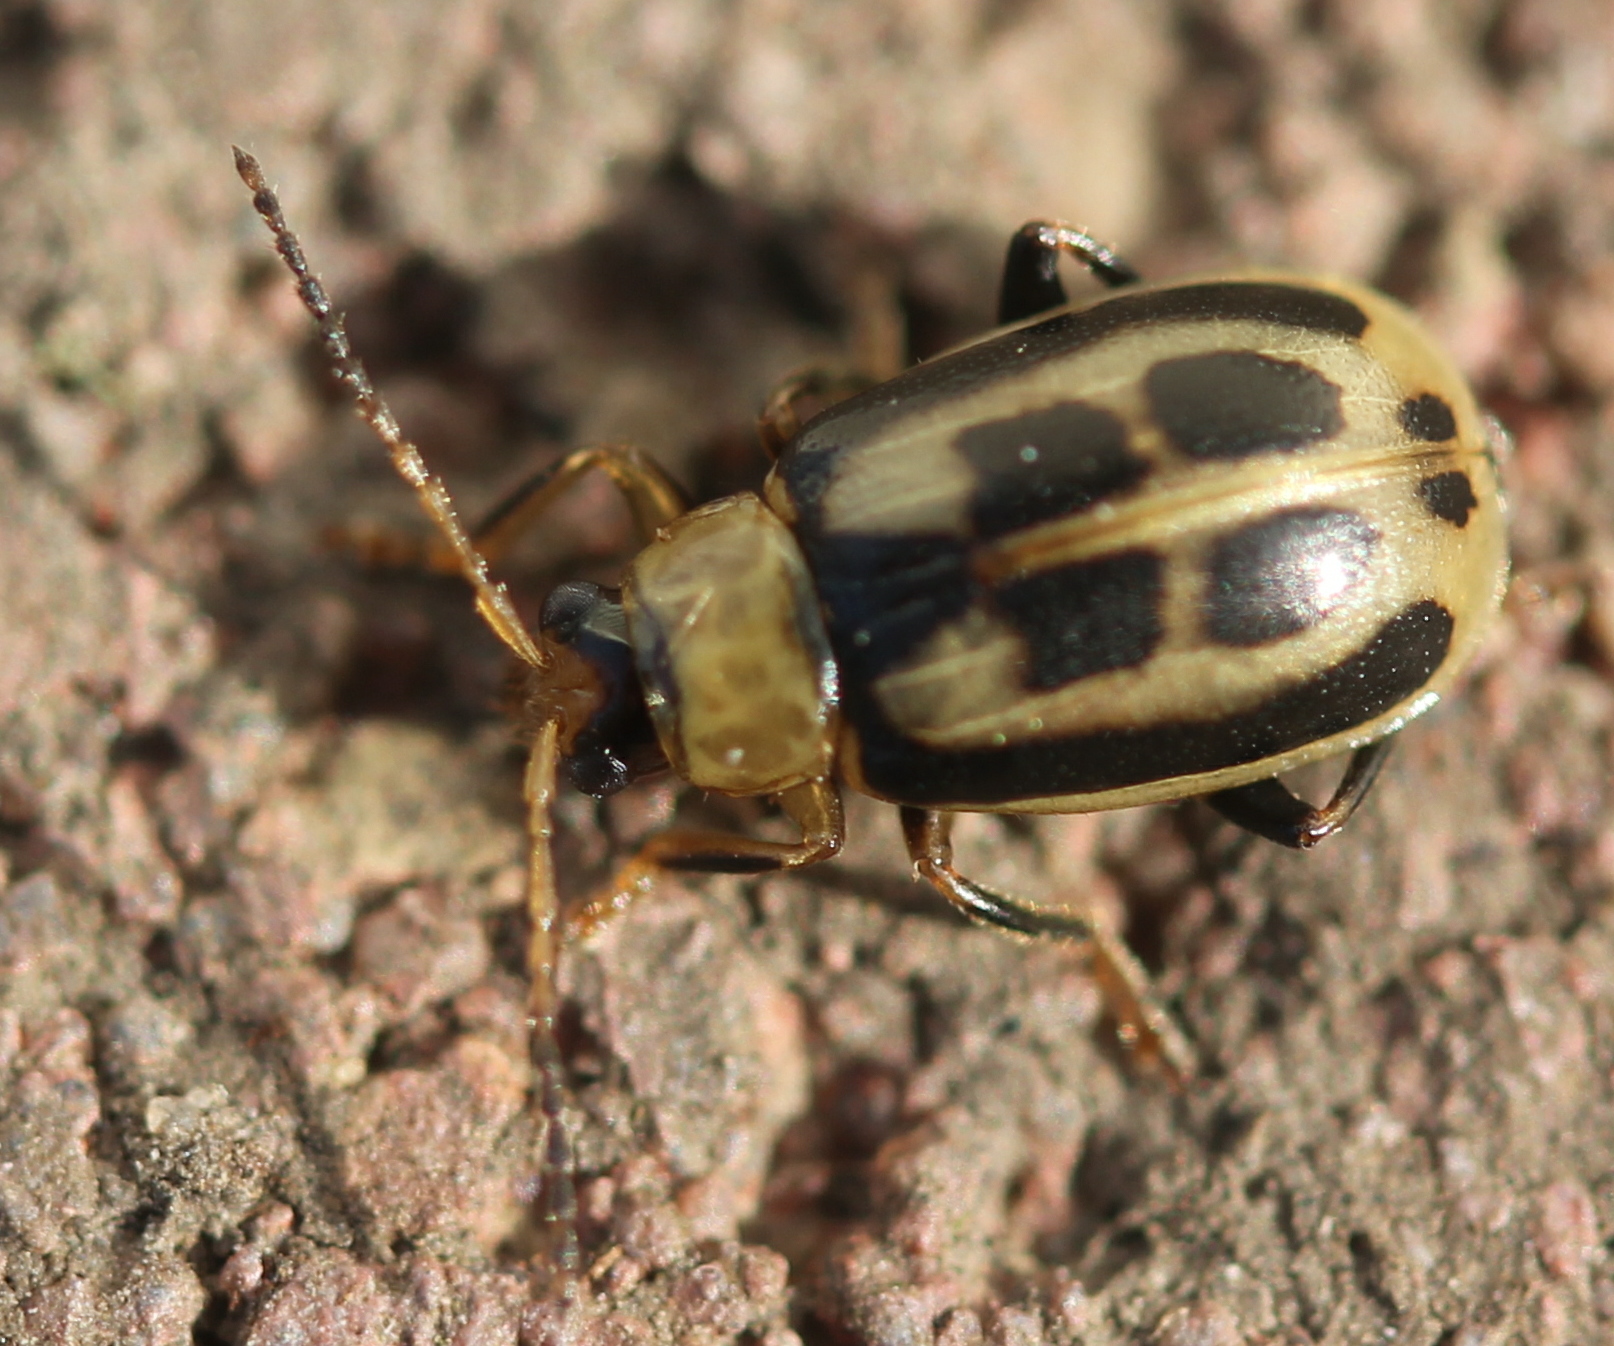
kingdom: Animalia
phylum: Arthropoda
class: Insecta
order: Coleoptera
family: Chrysomelidae
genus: Cerotoma
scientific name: Cerotoma trifurcata
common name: Bean leaf beetle
